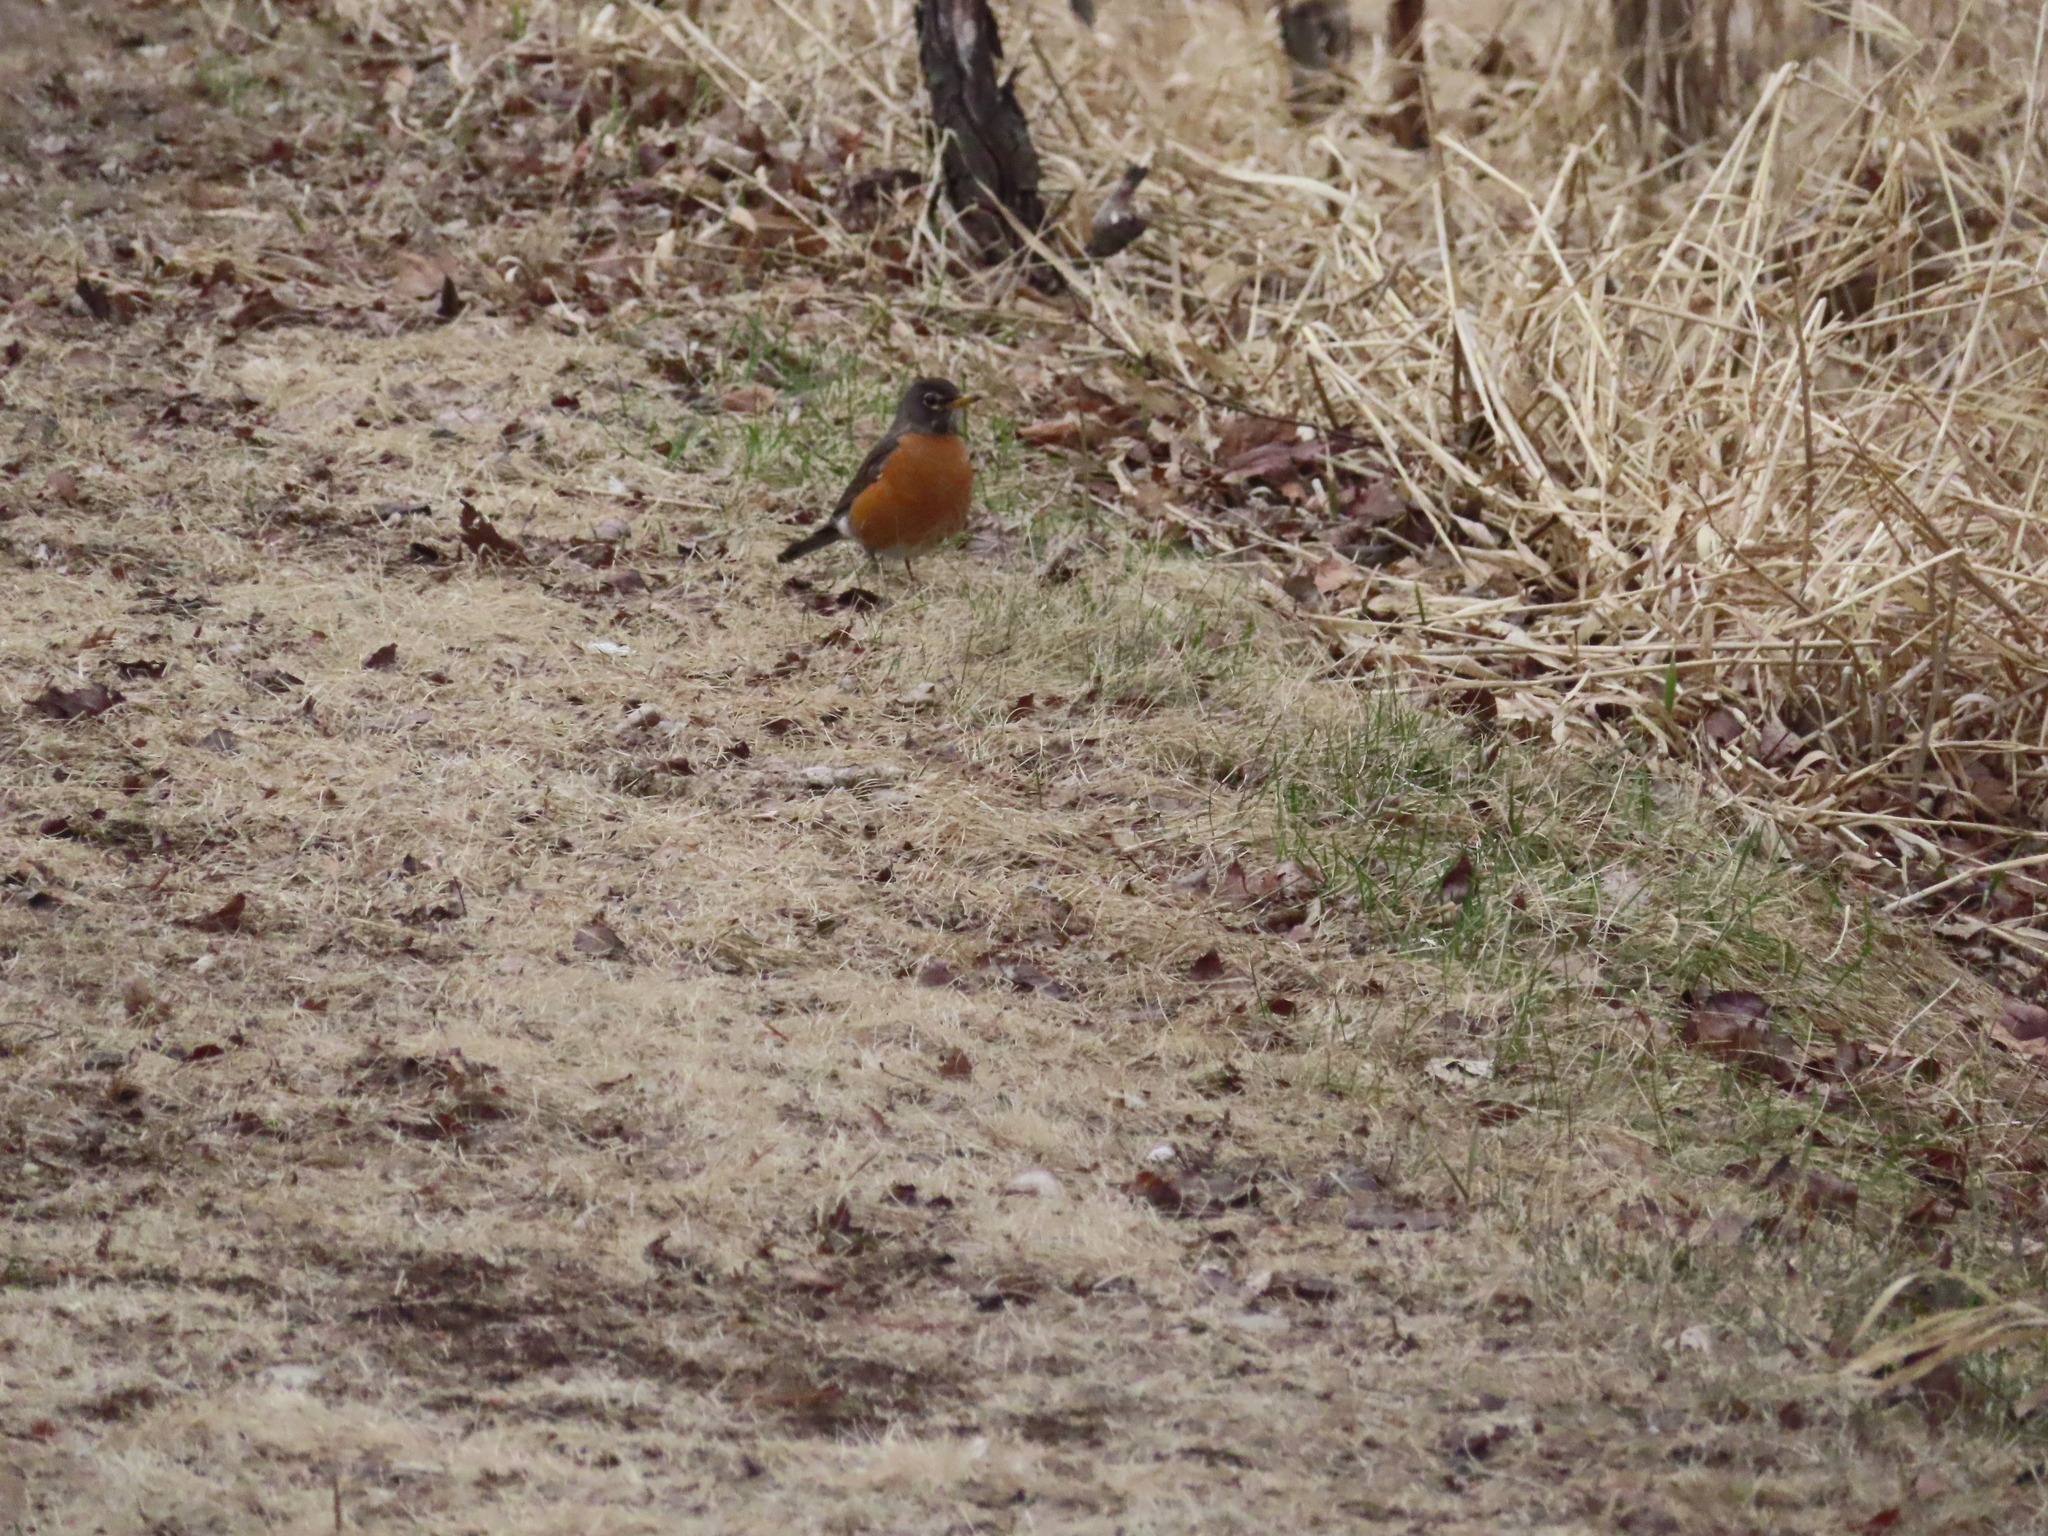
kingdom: Animalia
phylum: Chordata
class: Aves
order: Passeriformes
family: Turdidae
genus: Turdus
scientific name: Turdus migratorius
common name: American robin
